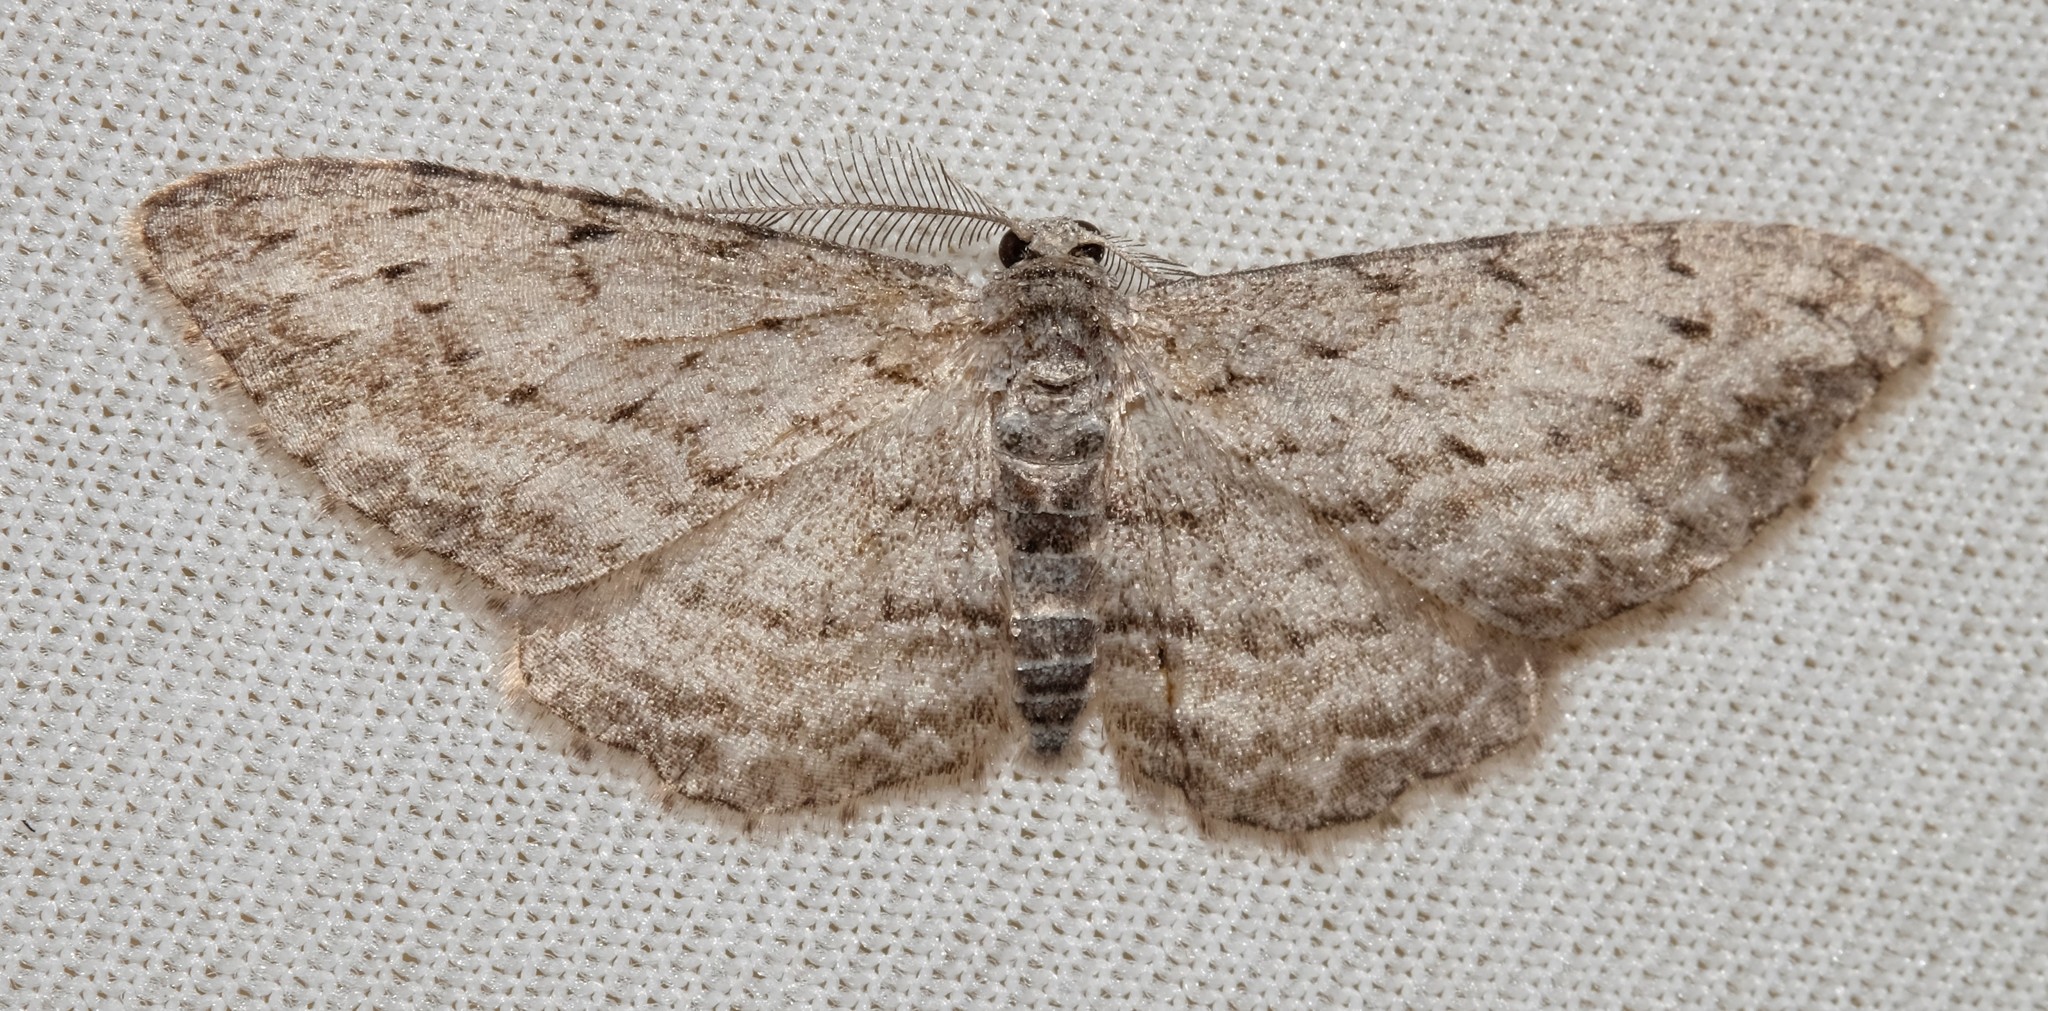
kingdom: Animalia
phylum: Arthropoda
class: Insecta
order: Lepidoptera
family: Geometridae
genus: Phelotis
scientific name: Phelotis cognata
